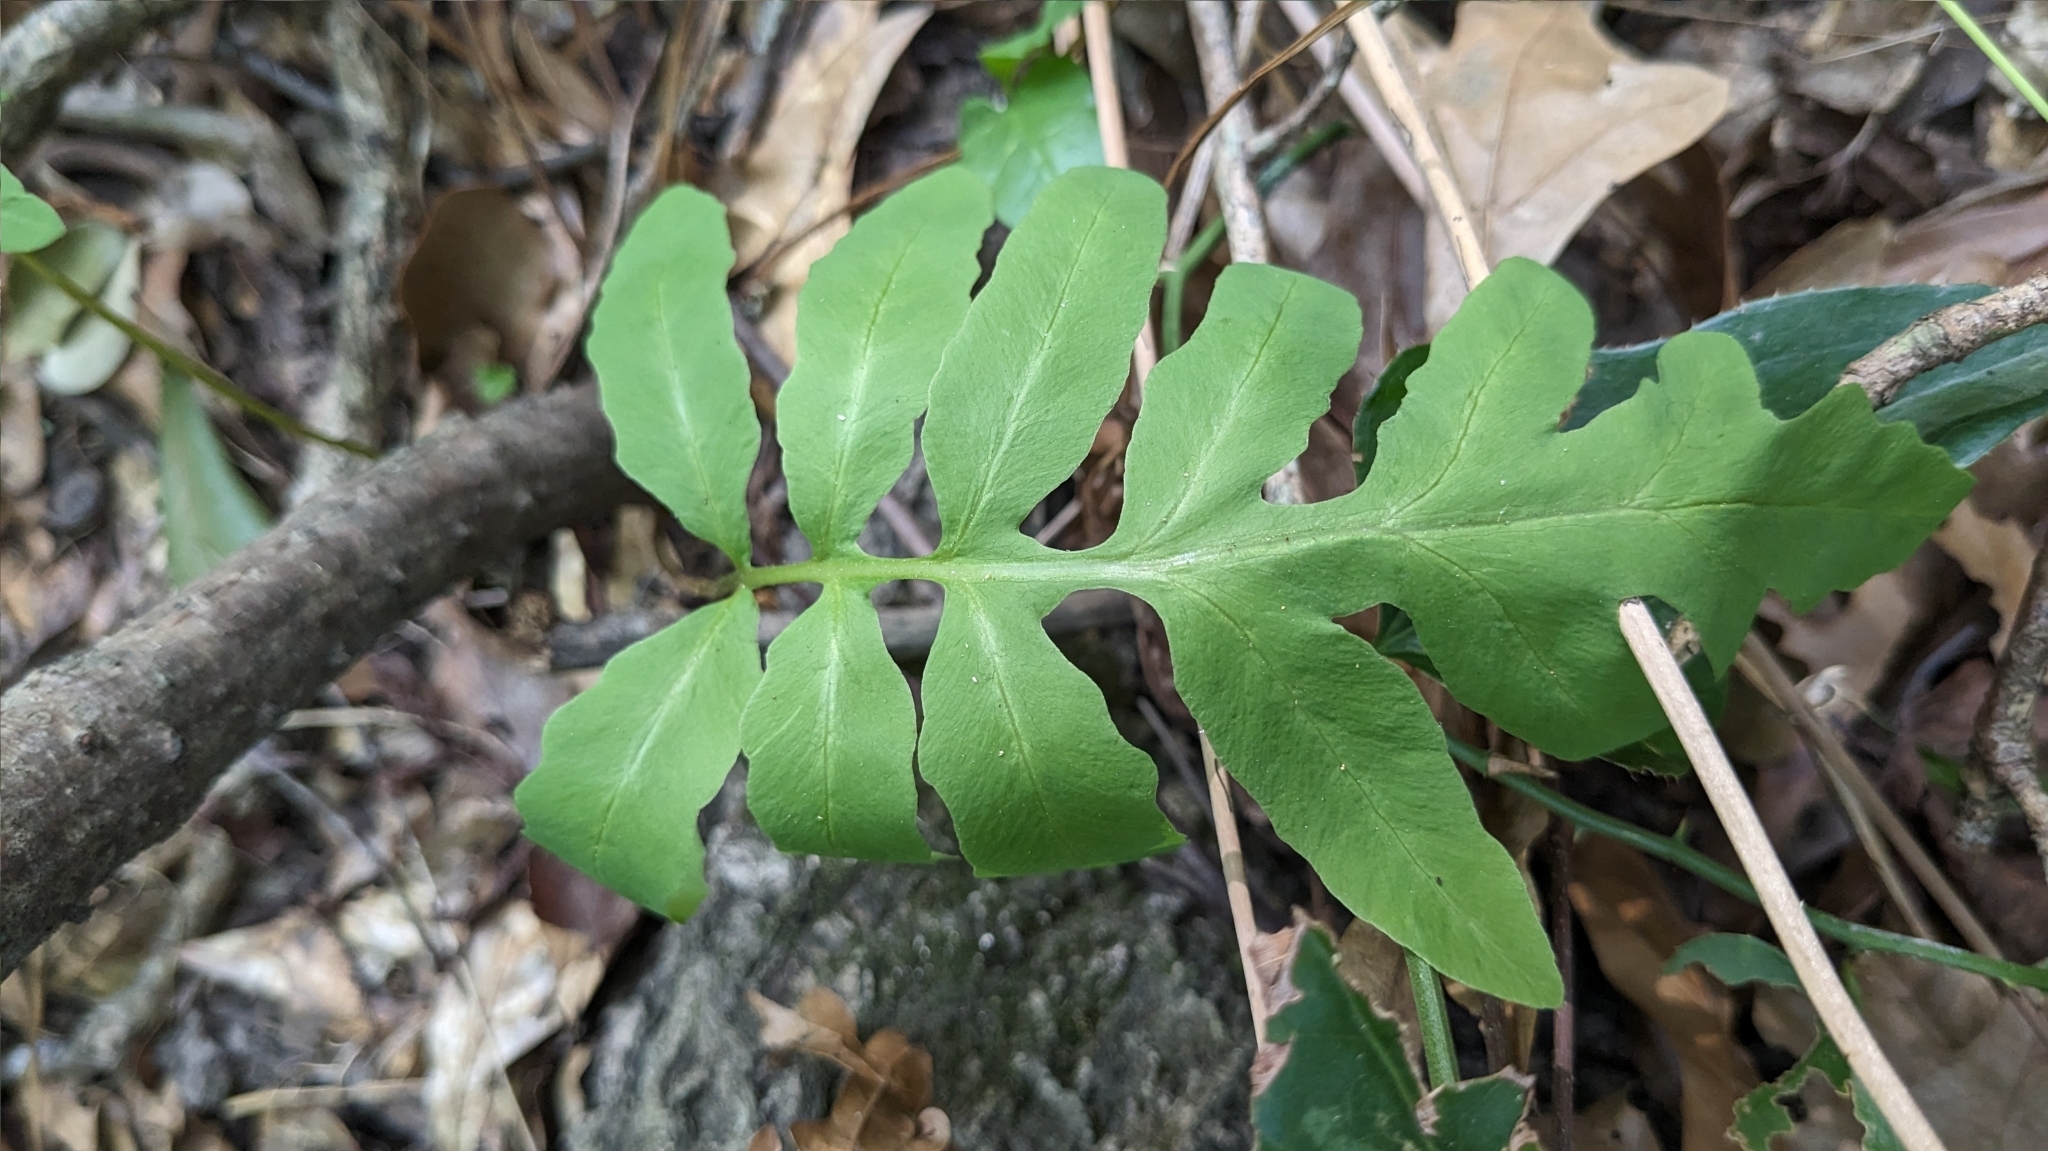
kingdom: Plantae
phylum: Tracheophyta
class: Polypodiopsida
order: Polypodiales
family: Onocleaceae
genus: Onoclea
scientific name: Onoclea sensibilis
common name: Sensitive fern
